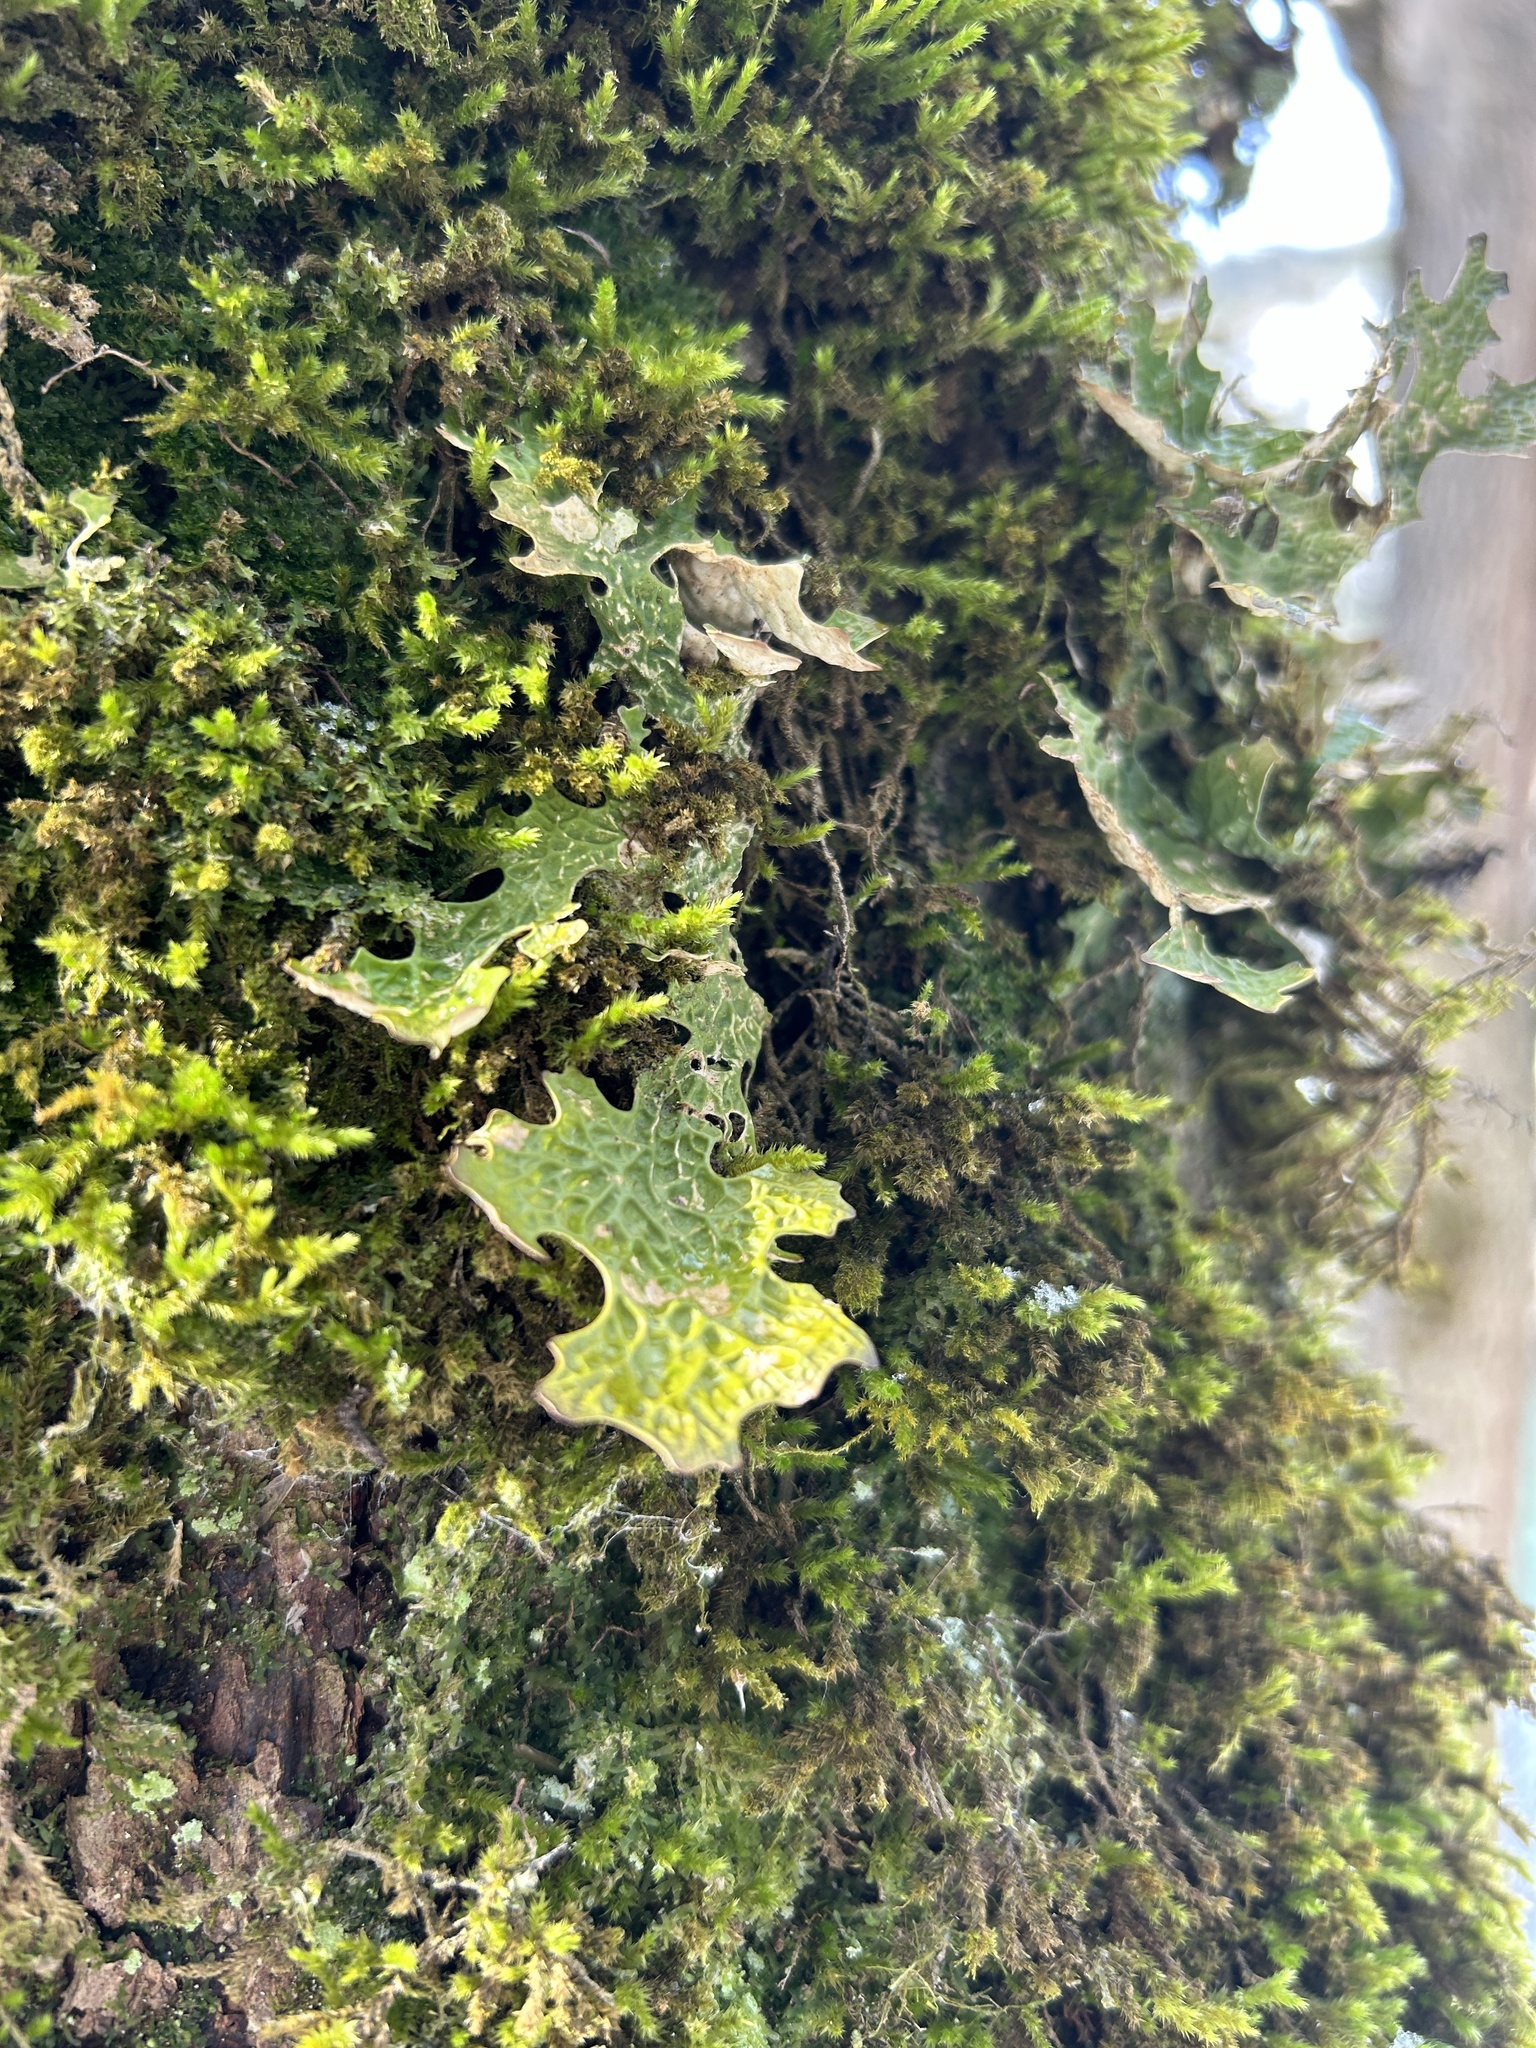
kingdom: Fungi
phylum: Ascomycota
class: Lecanoromycetes
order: Peltigerales
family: Lobariaceae
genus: Lobaria
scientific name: Lobaria pulmonaria
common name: Lungwort
